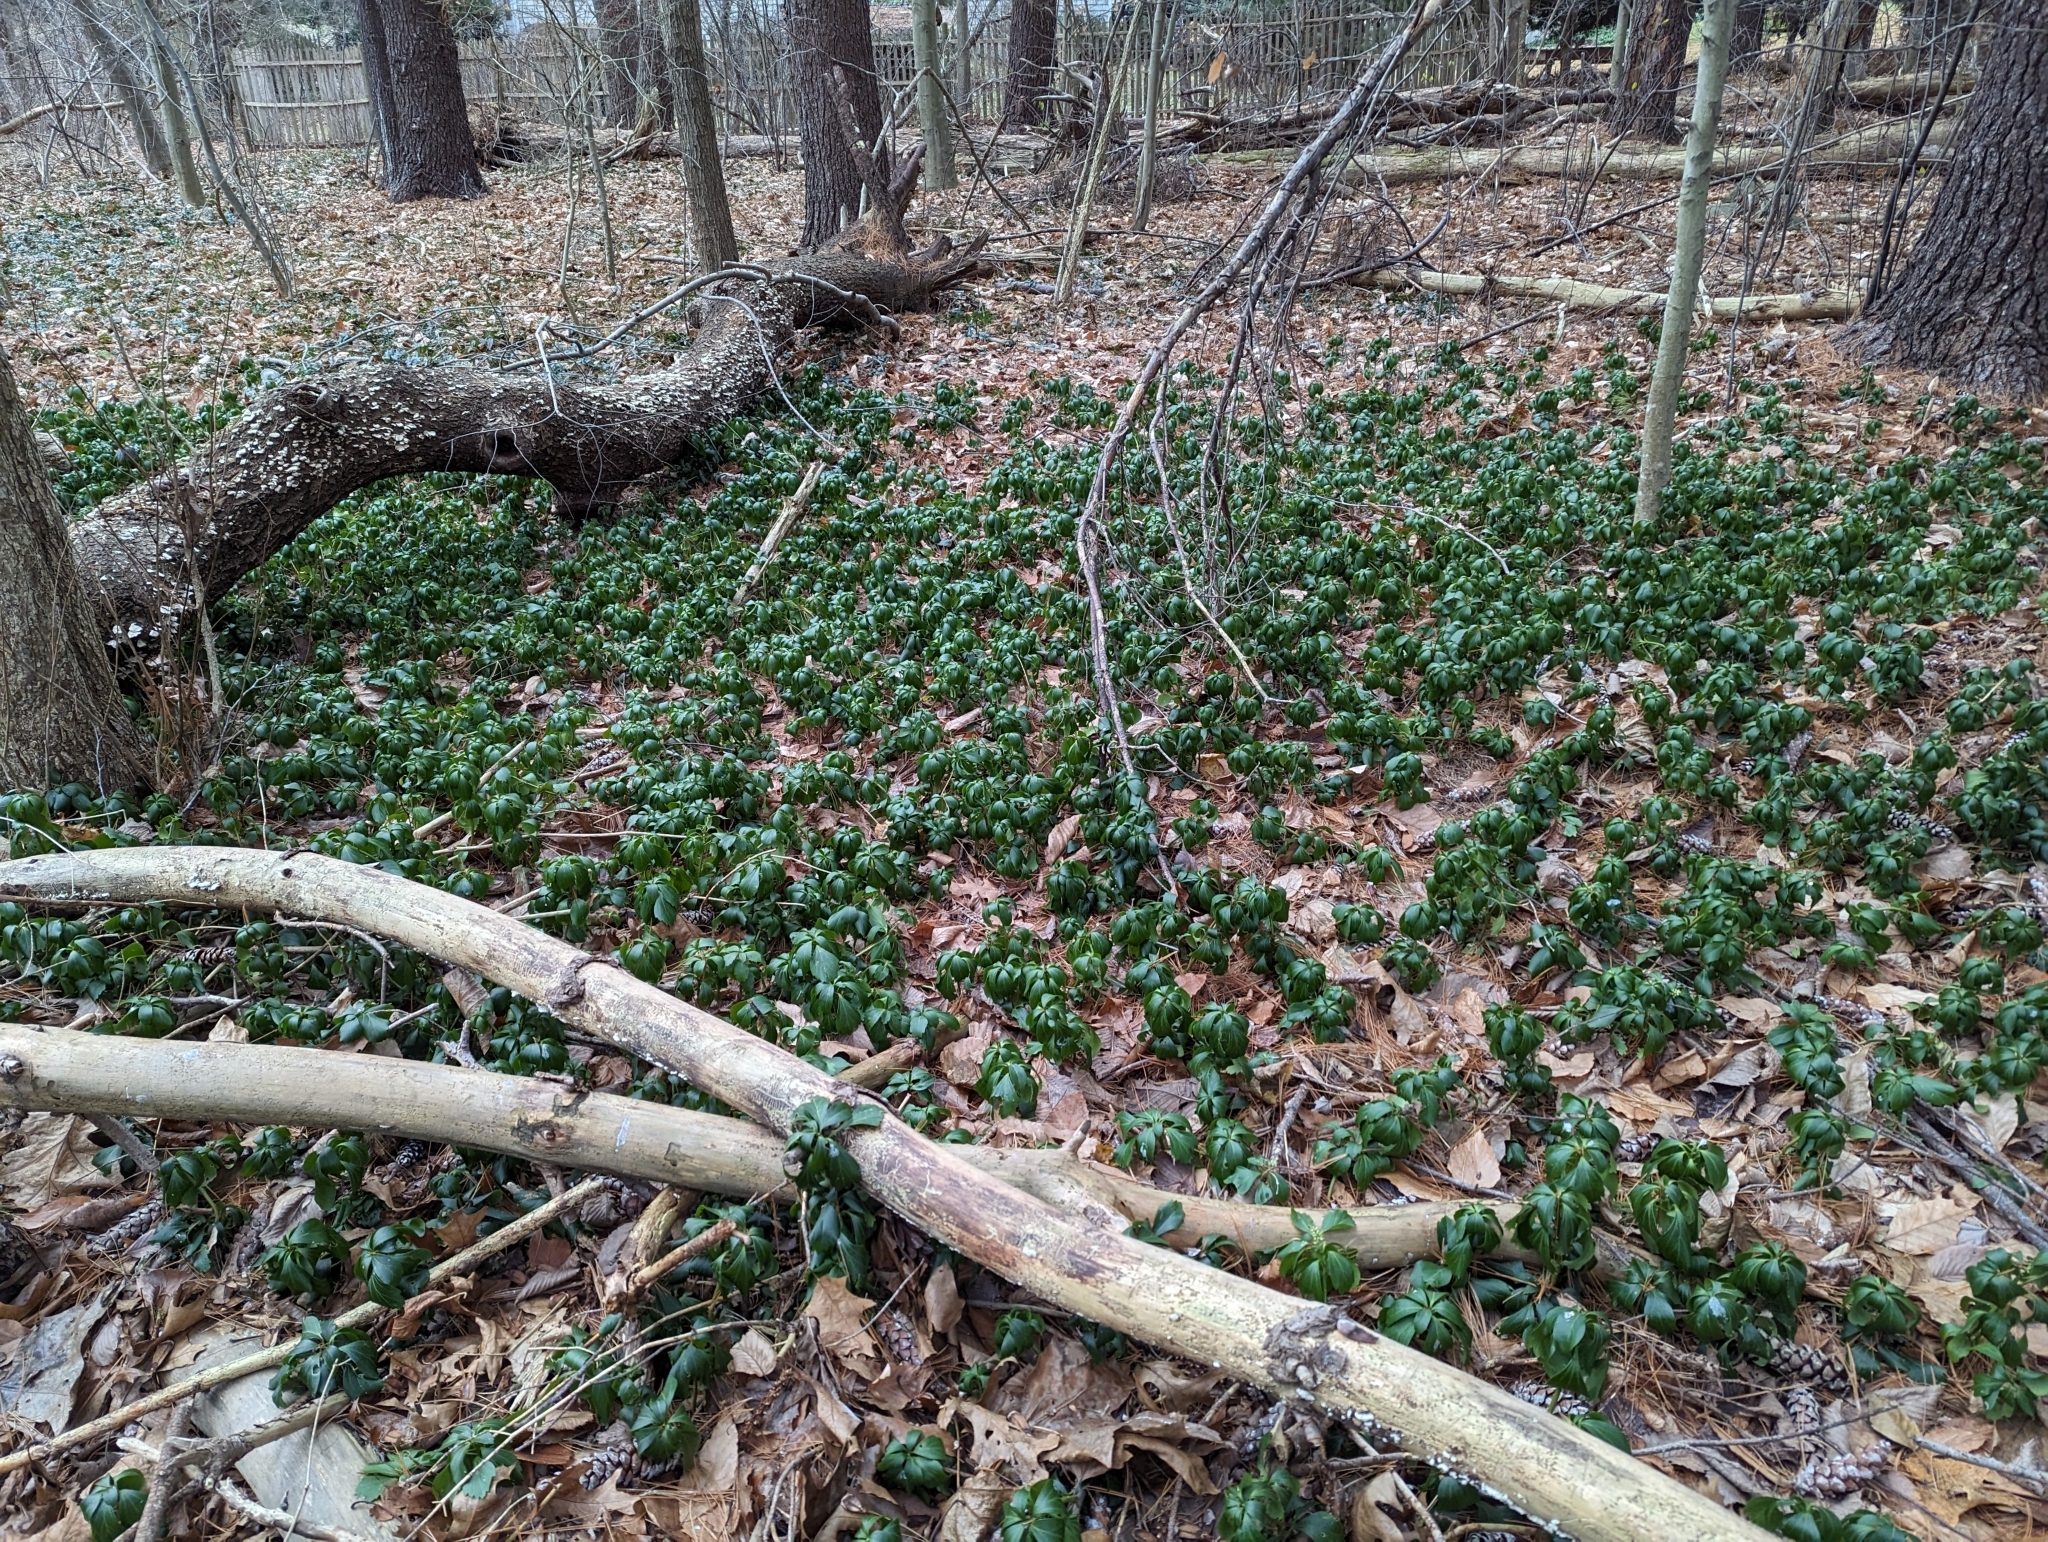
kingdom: Plantae
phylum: Tracheophyta
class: Magnoliopsida
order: Buxales
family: Buxaceae
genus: Pachysandra
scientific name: Pachysandra terminalis
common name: Japanese pachysandra
